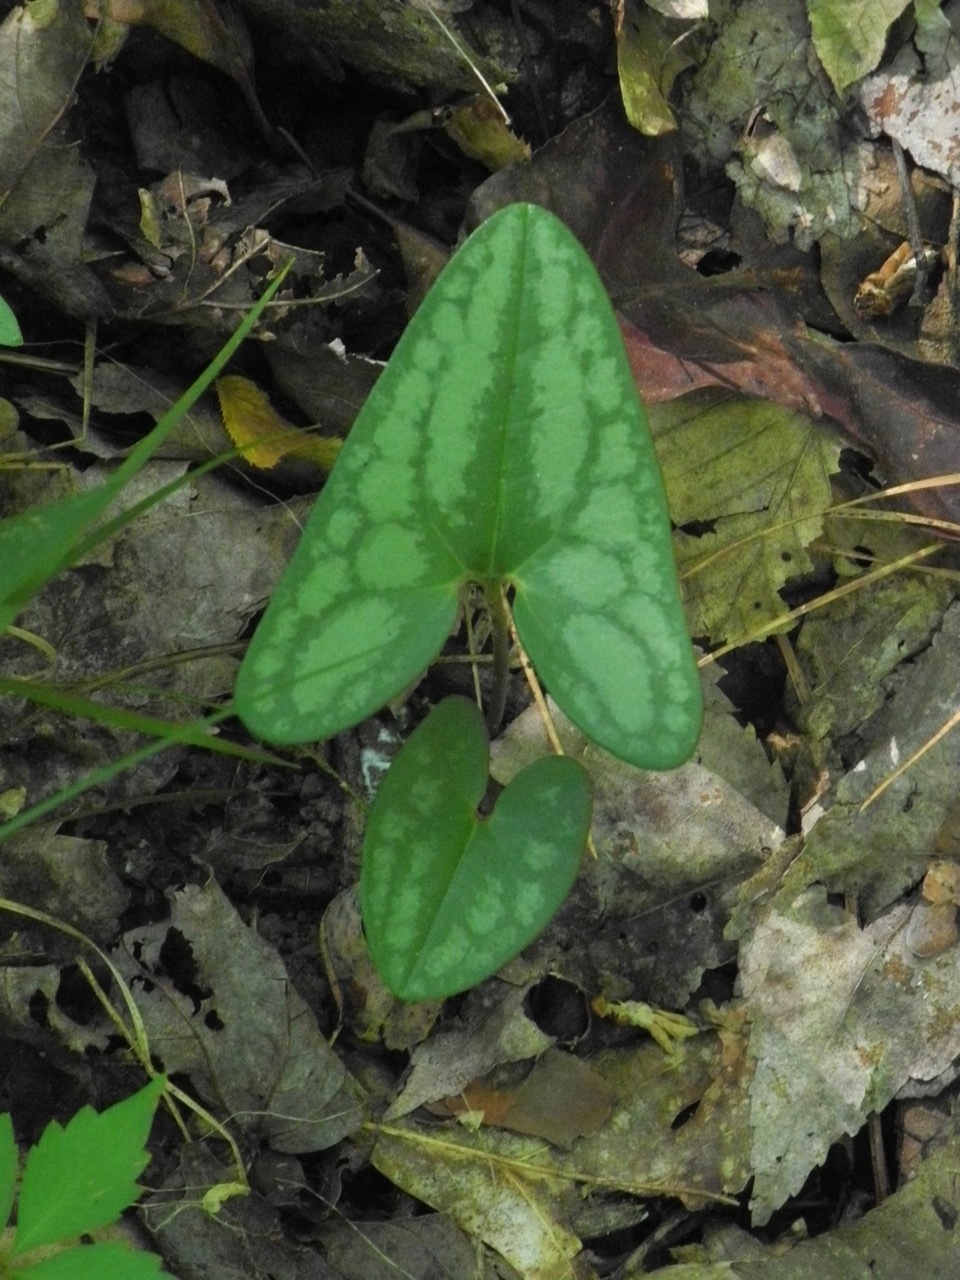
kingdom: Plantae
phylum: Tracheophyta
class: Magnoliopsida
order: Piperales
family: Aristolochiaceae
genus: Hexastylis
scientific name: Hexastylis arifolia
